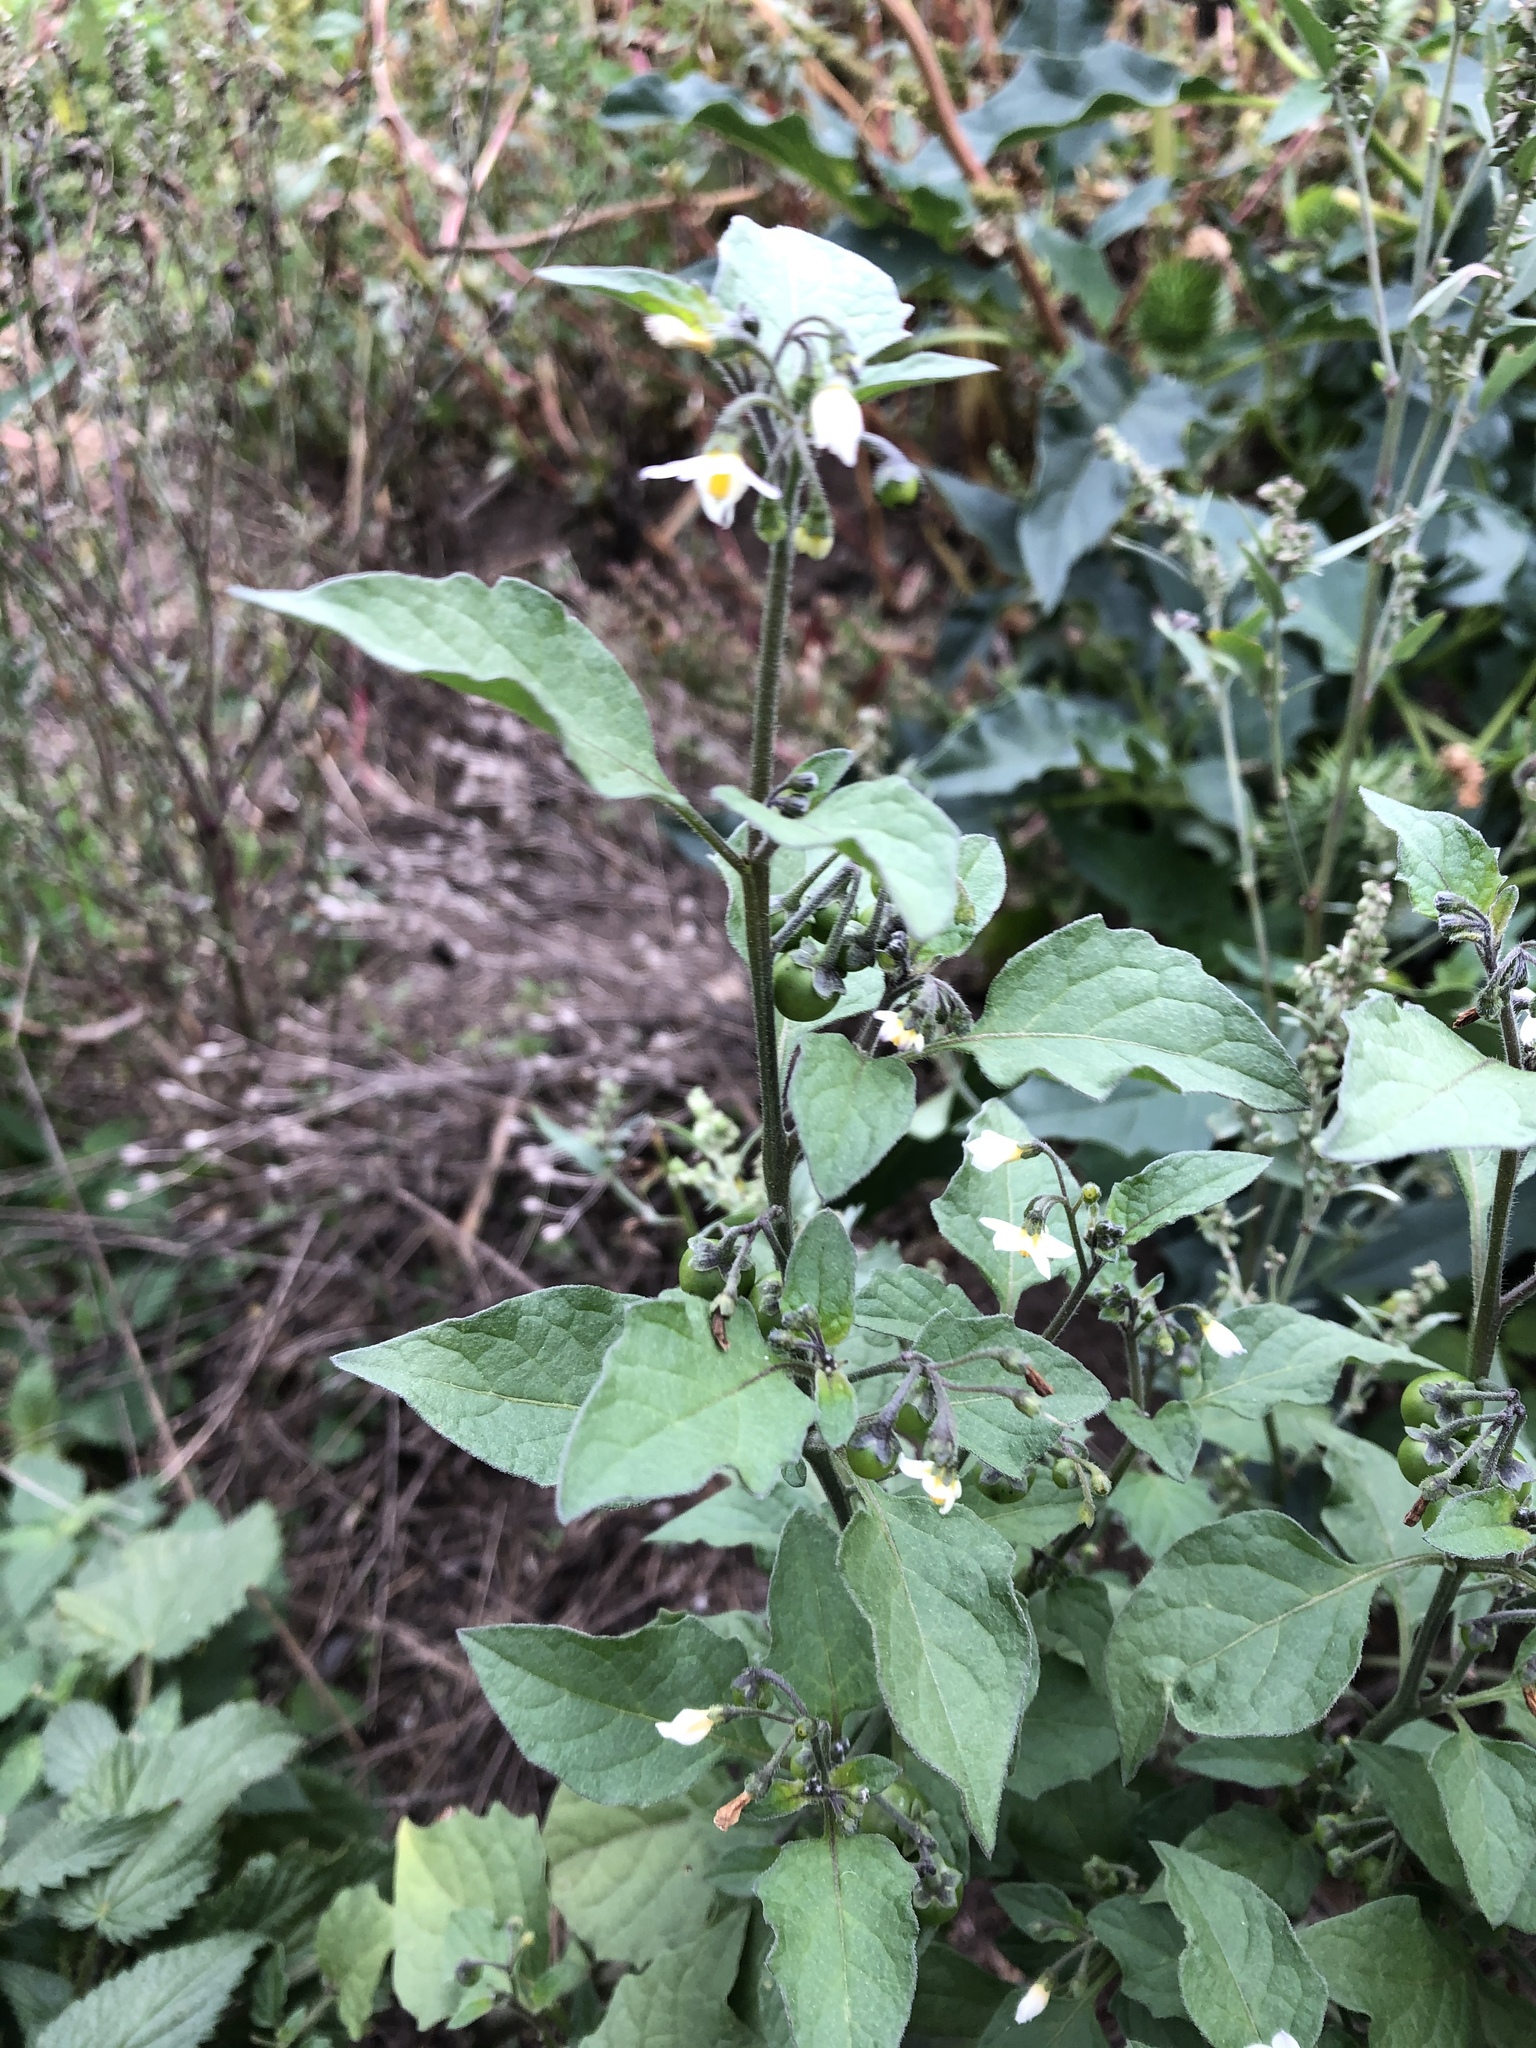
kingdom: Plantae
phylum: Tracheophyta
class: Magnoliopsida
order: Solanales
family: Solanaceae
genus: Solanum
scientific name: Solanum nigrum
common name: Black nightshade
